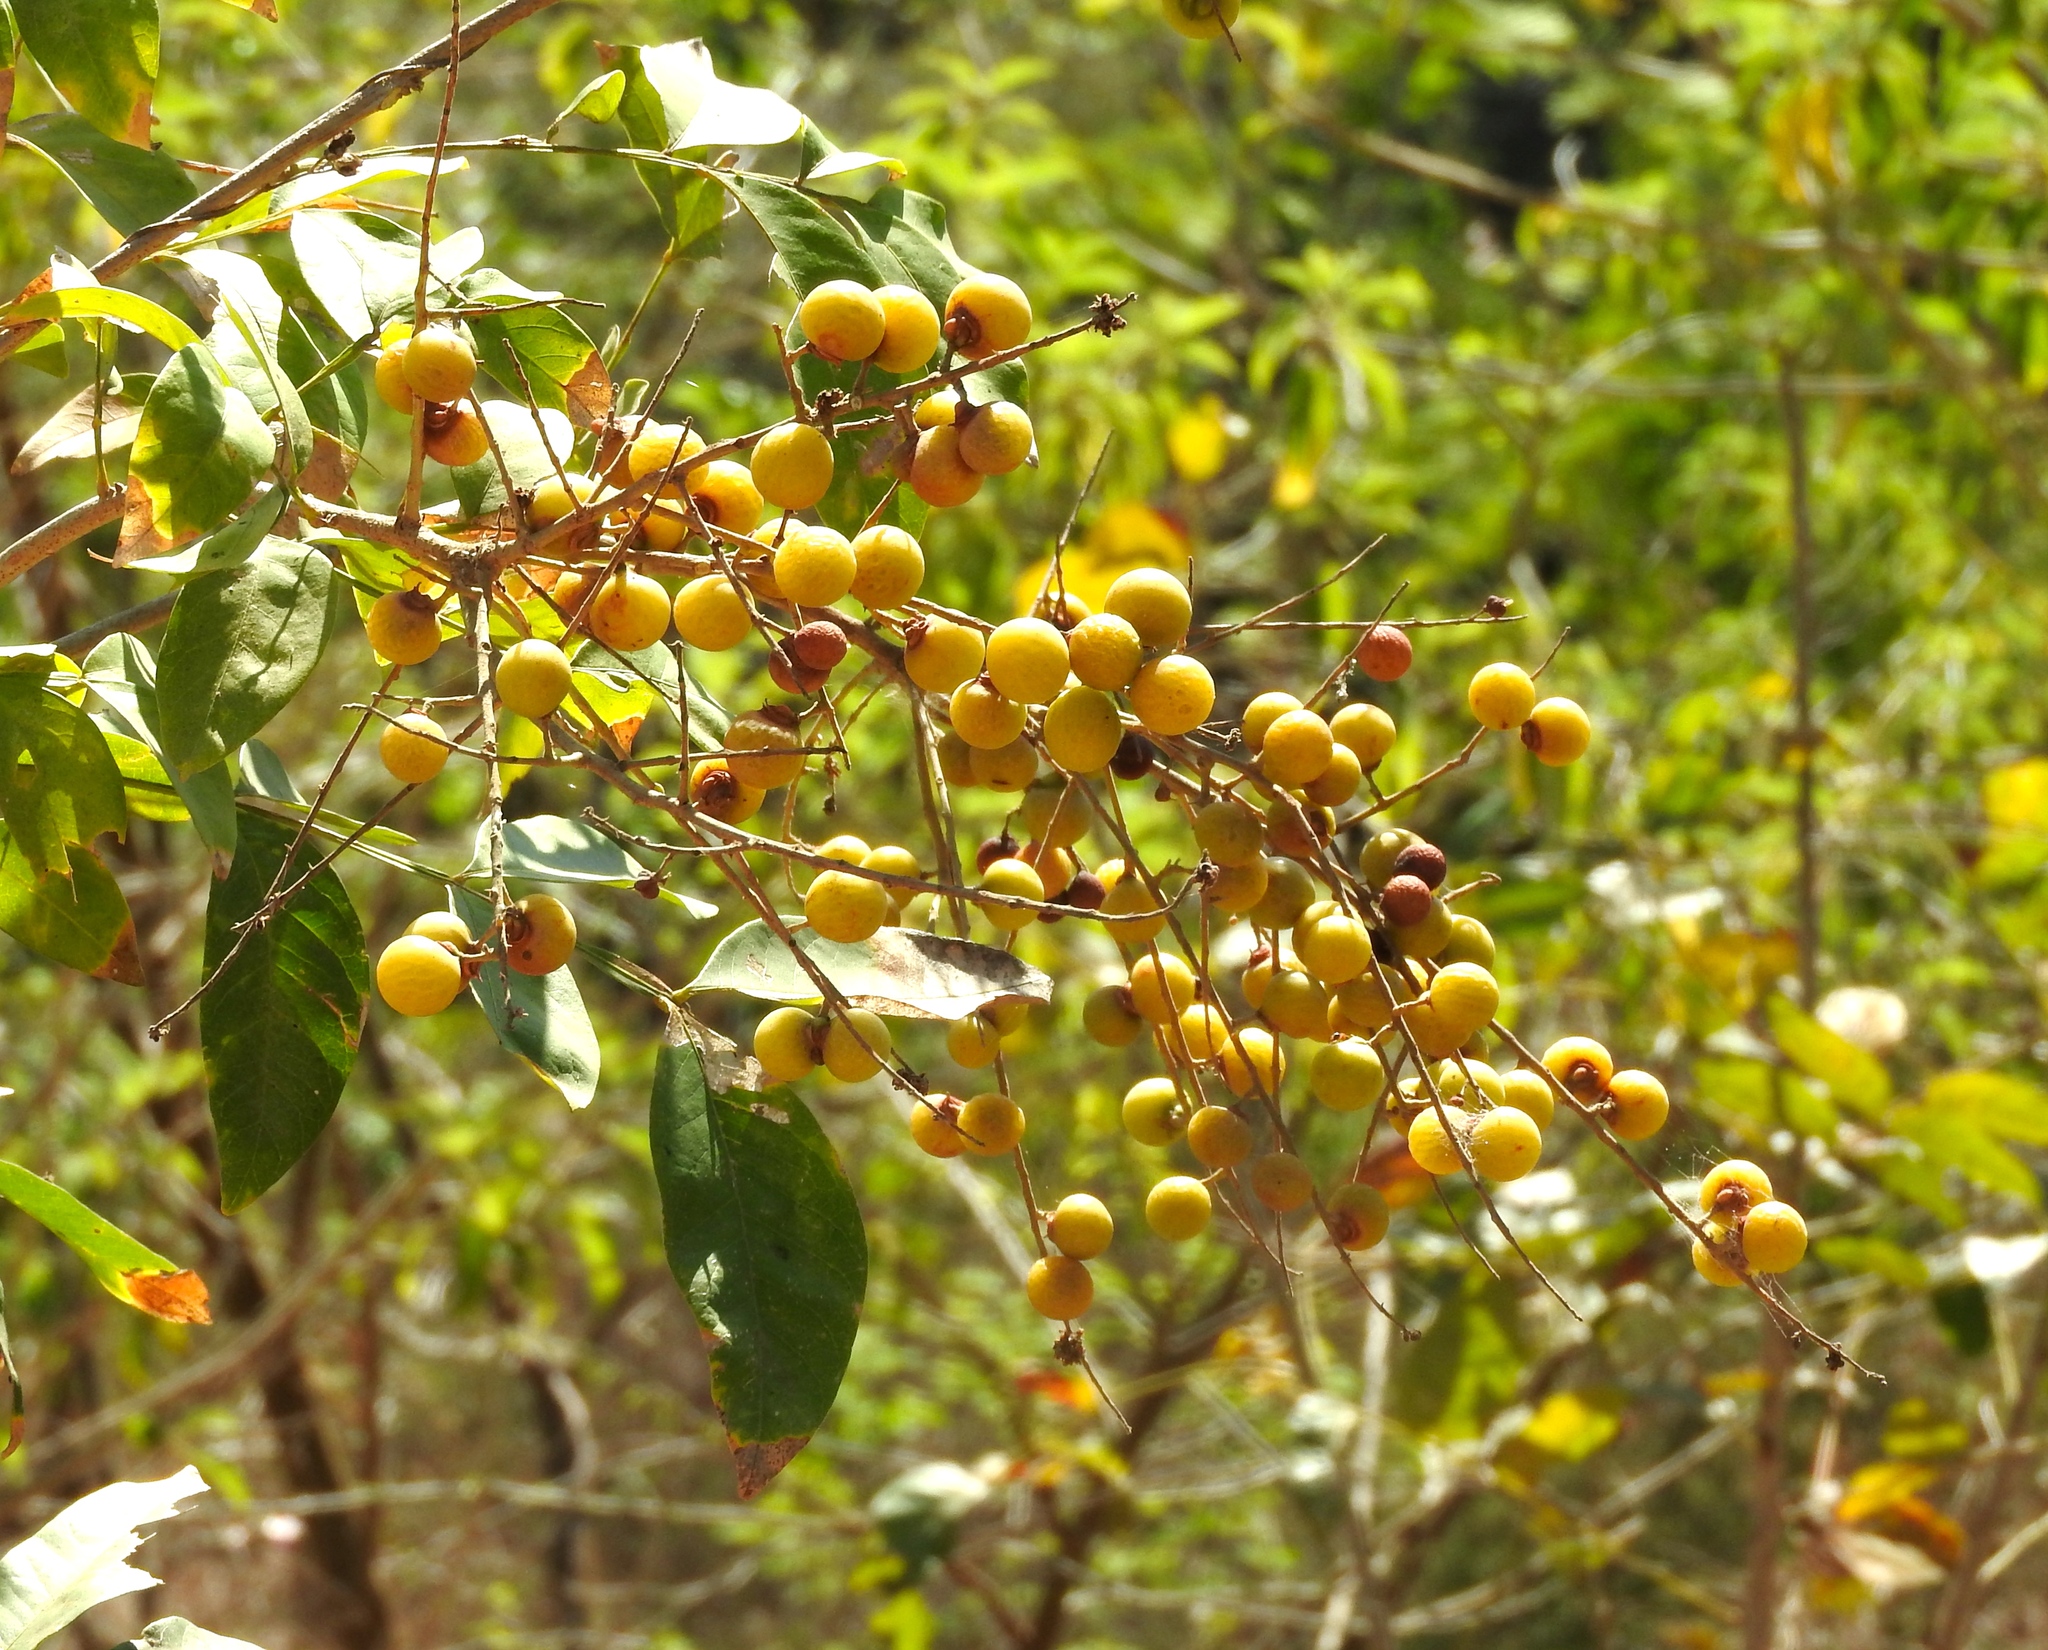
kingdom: Plantae
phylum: Tracheophyta
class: Magnoliopsida
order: Sapindales
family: Sapindaceae
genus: Sapindus
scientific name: Sapindus drummondii
